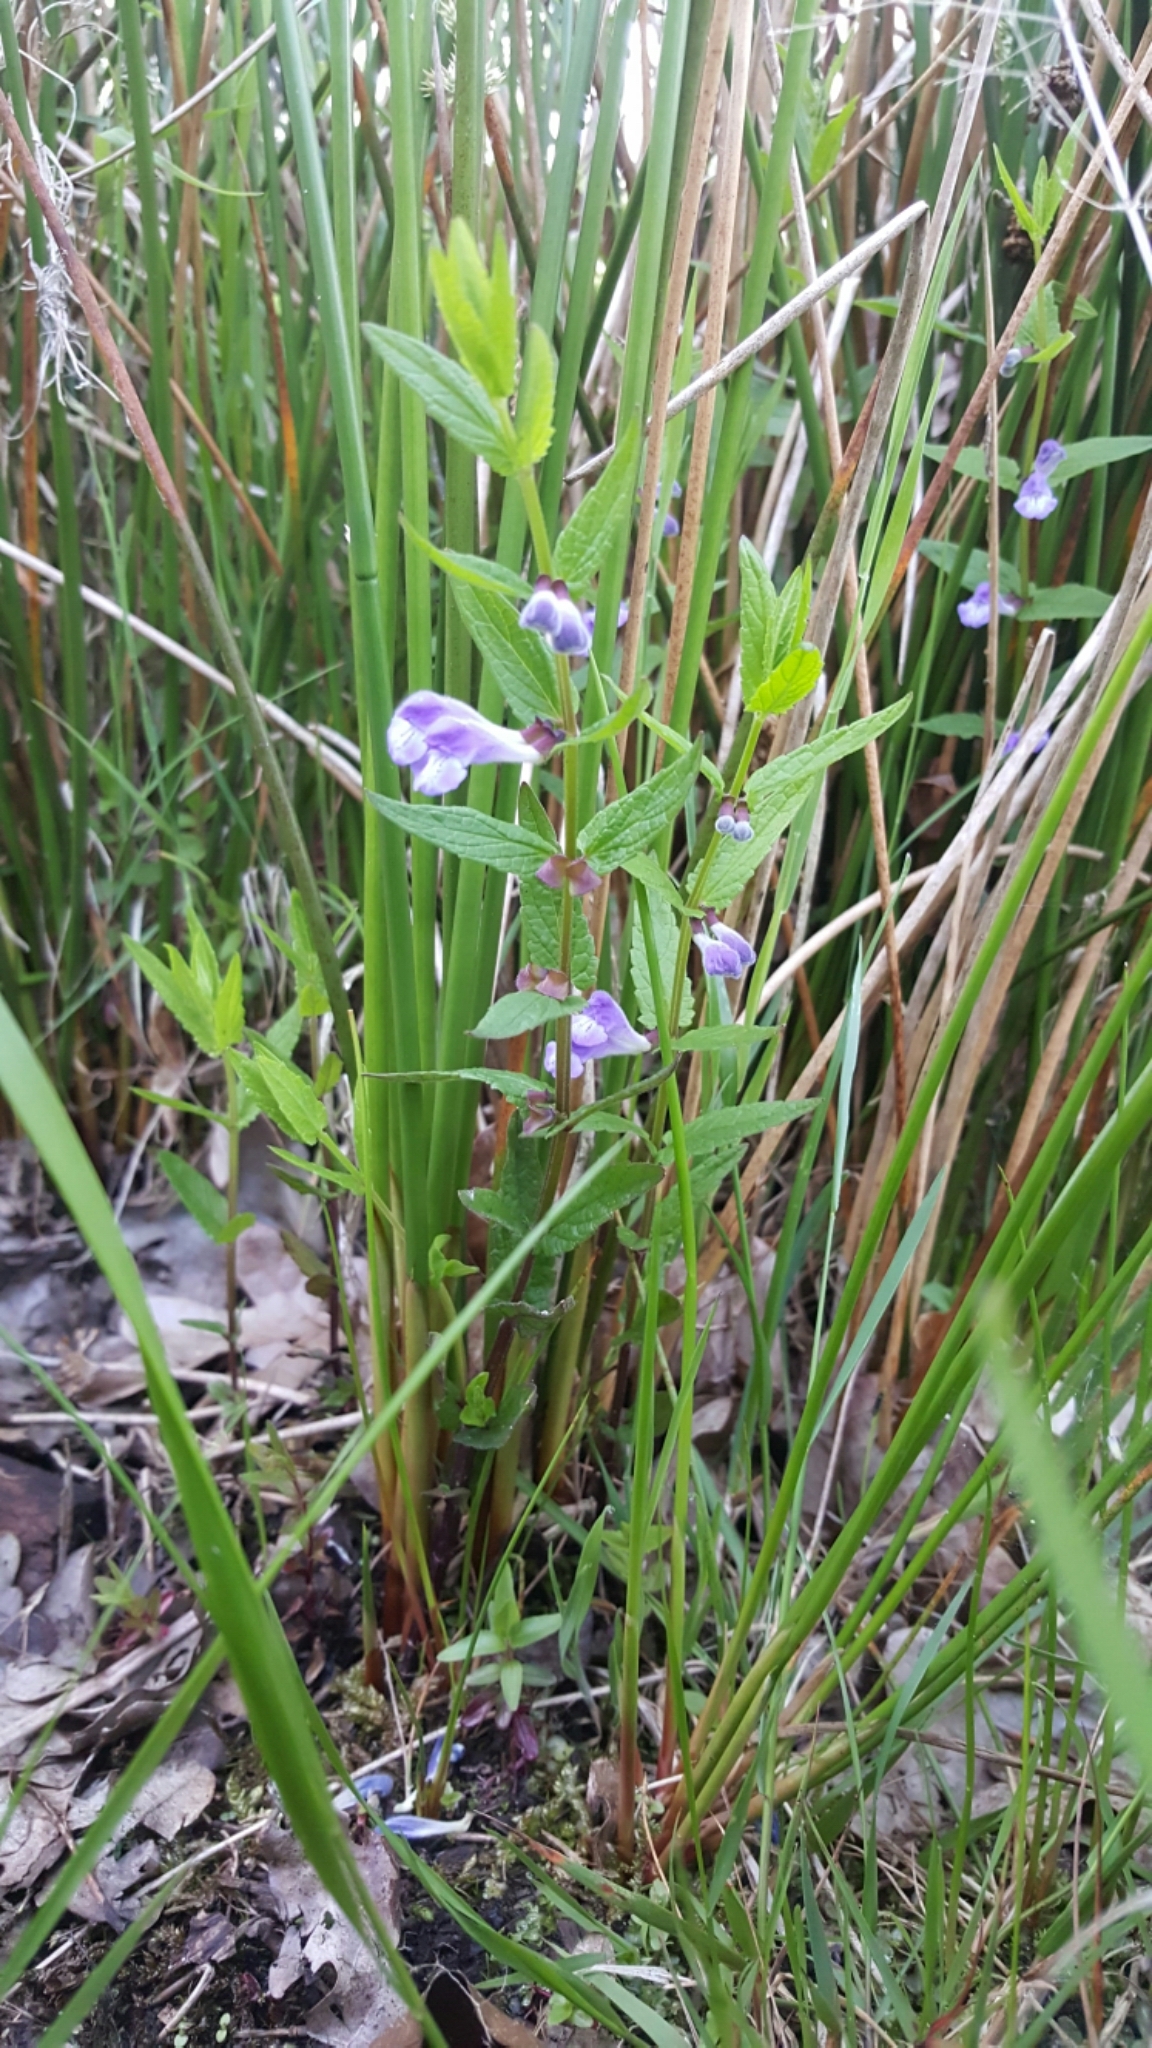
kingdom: Plantae
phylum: Tracheophyta
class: Magnoliopsida
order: Lamiales
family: Lamiaceae
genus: Scutellaria
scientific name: Scutellaria galericulata
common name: Skullcap
